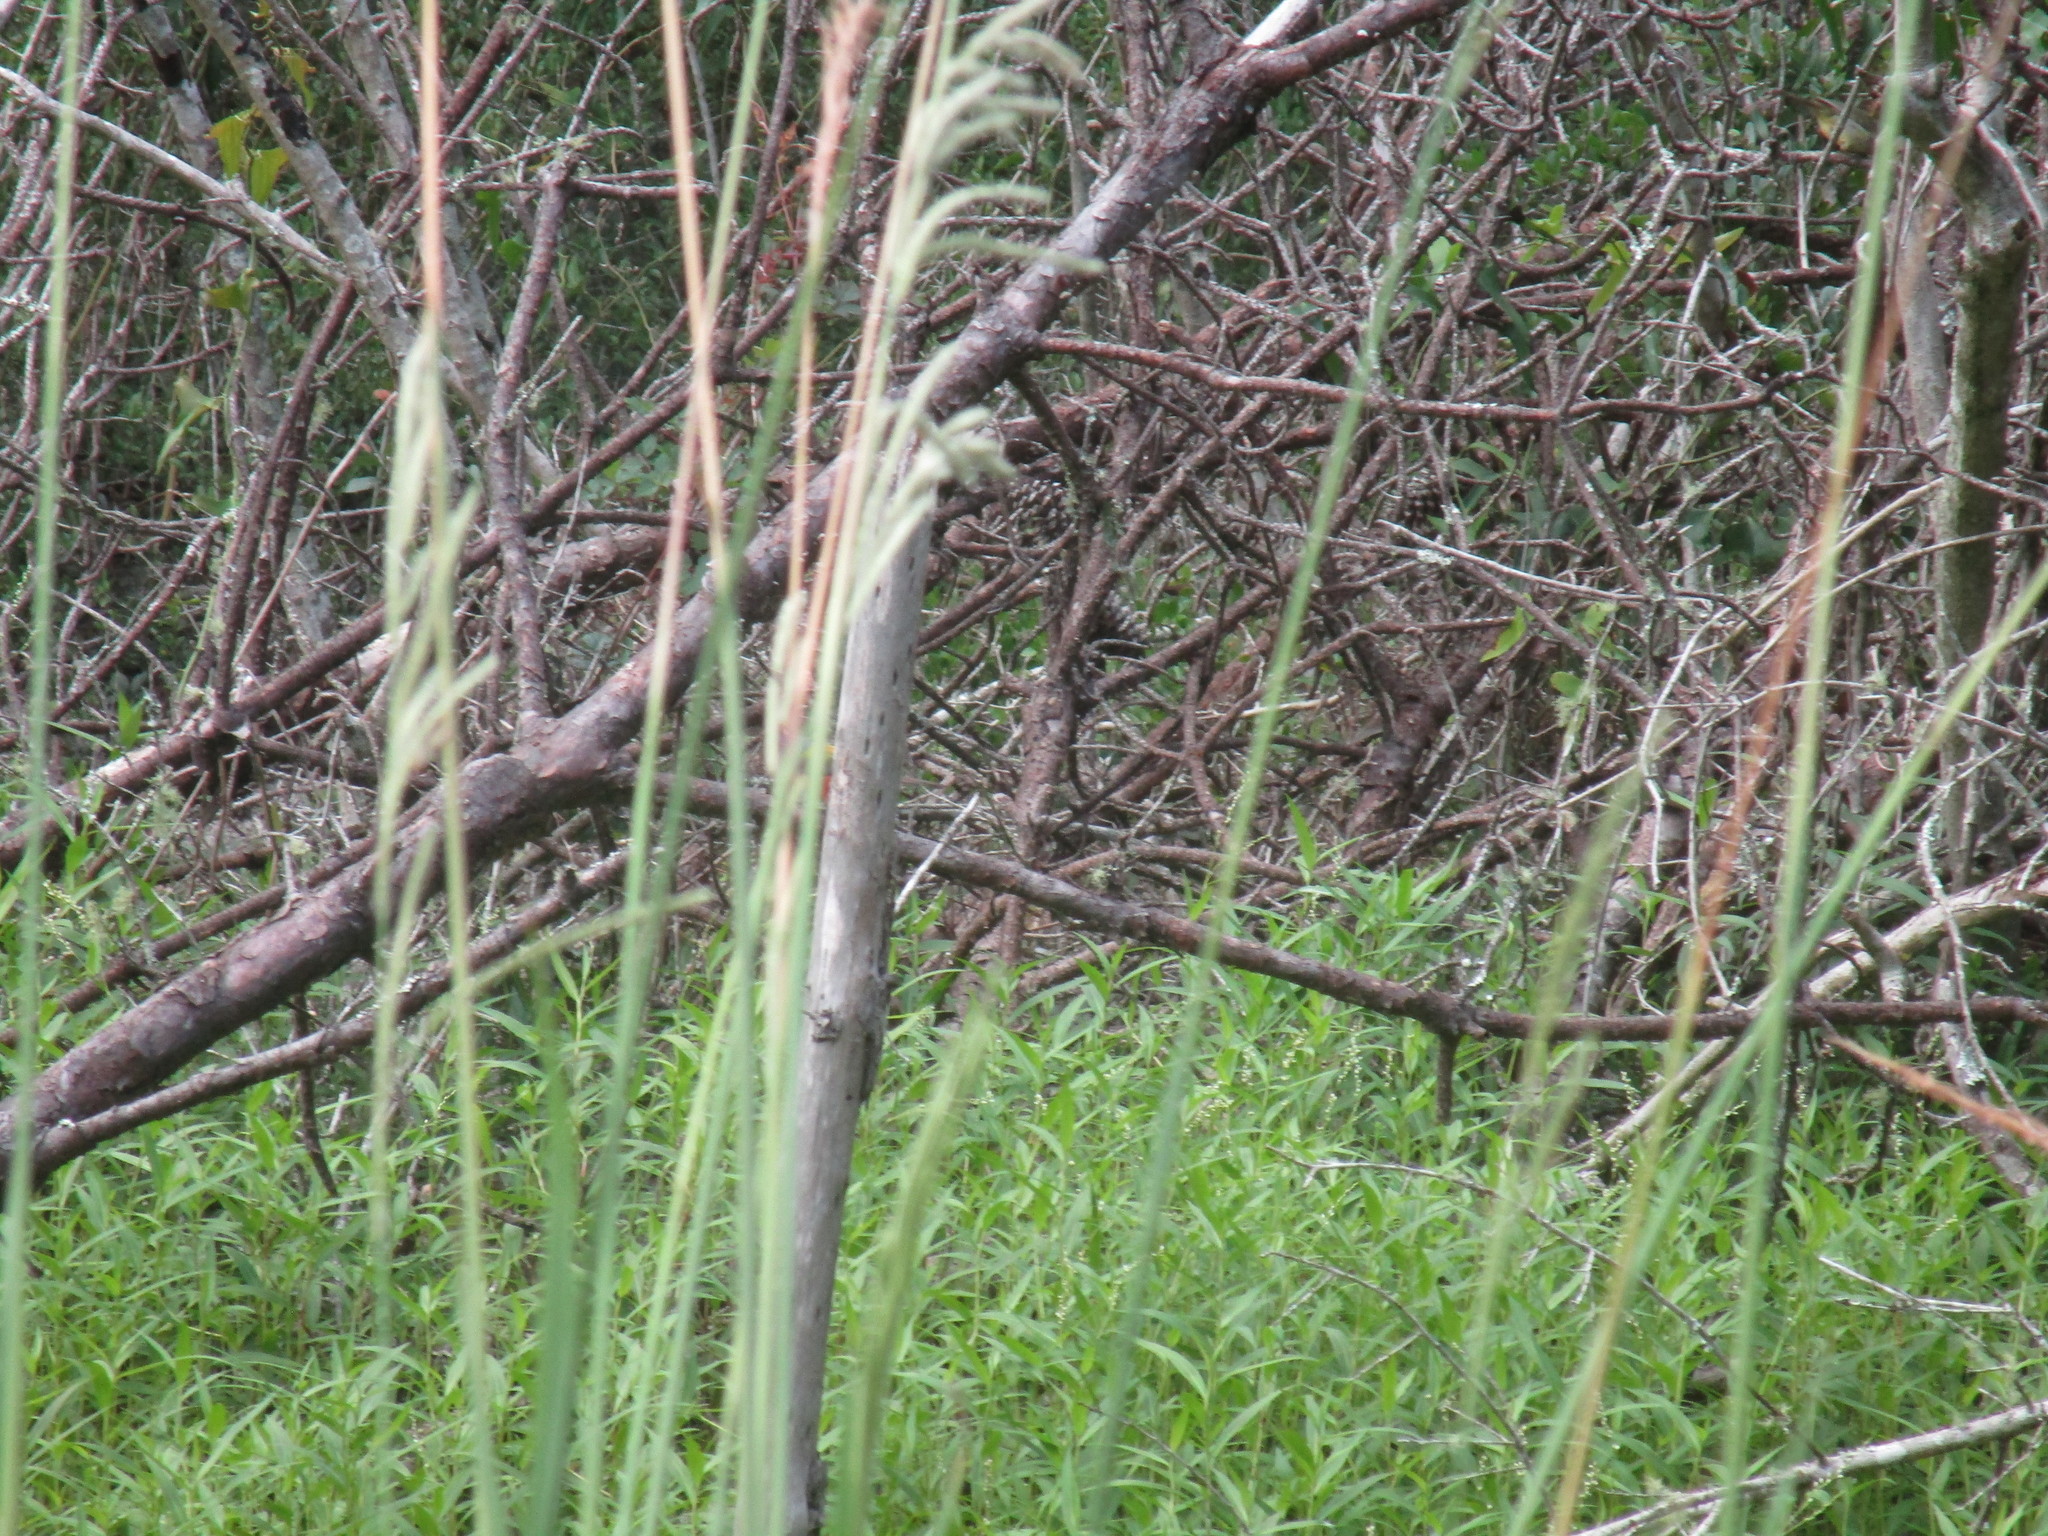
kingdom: Animalia
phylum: Chordata
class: Aves
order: Passeriformes
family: Cardinalidae
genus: Passerina
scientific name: Passerina ciris
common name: Painted bunting
